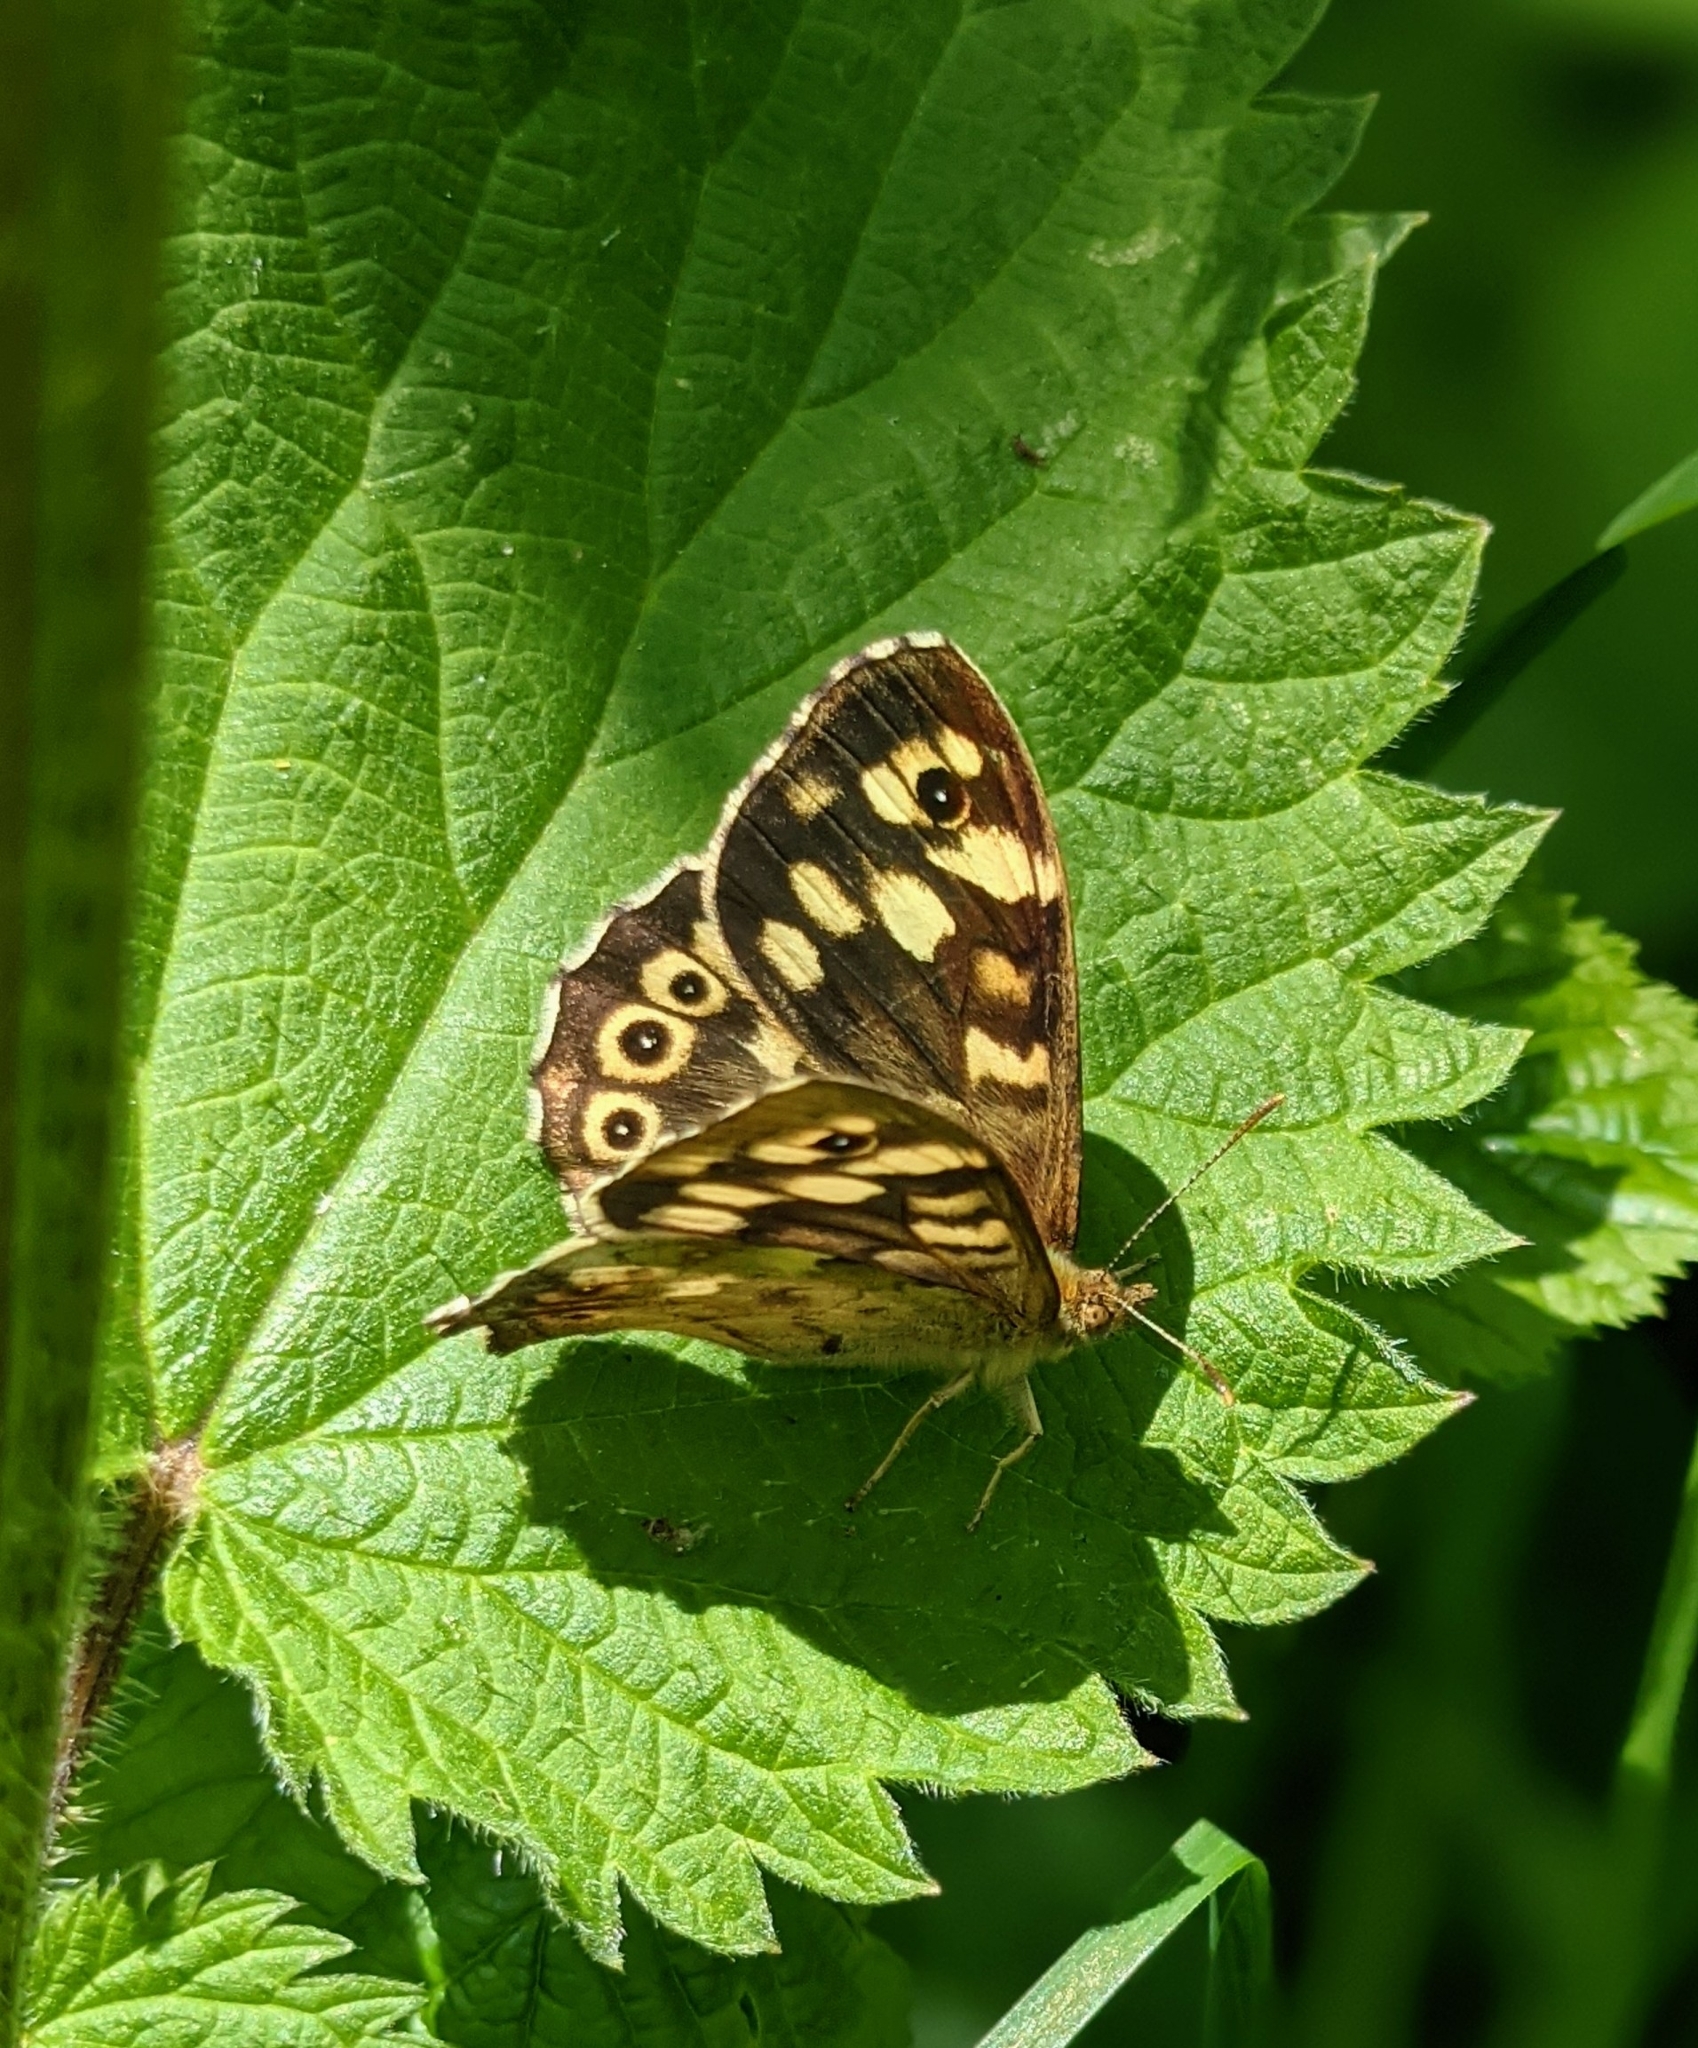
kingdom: Animalia
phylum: Arthropoda
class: Insecta
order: Lepidoptera
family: Nymphalidae
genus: Pararge
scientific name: Pararge aegeria
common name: Speckled wood
